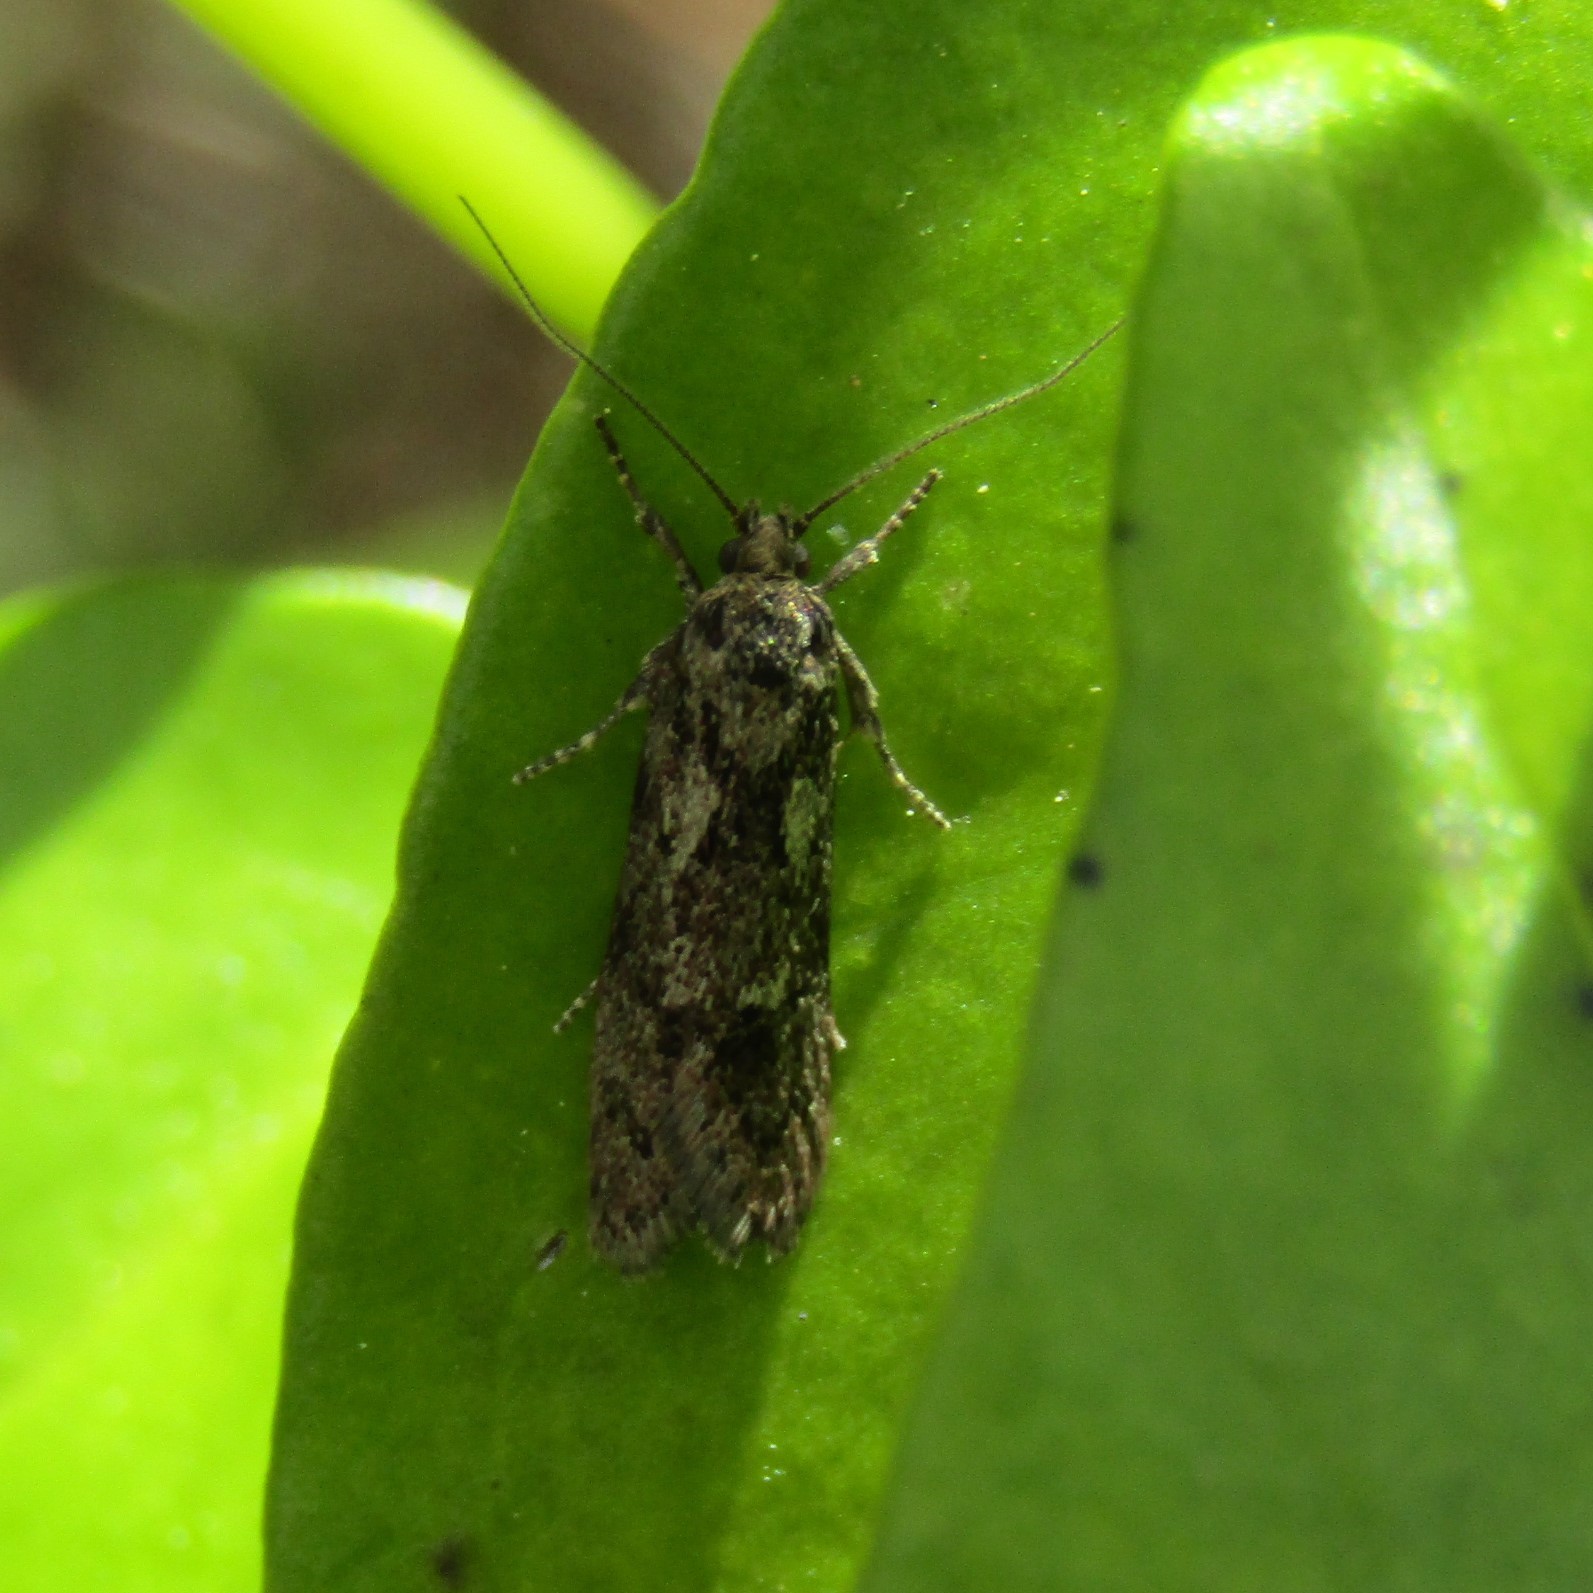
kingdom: Animalia
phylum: Arthropoda
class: Insecta
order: Lepidoptera
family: Oecophoridae
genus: Chersadaula
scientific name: Chersadaula ochrogastra
